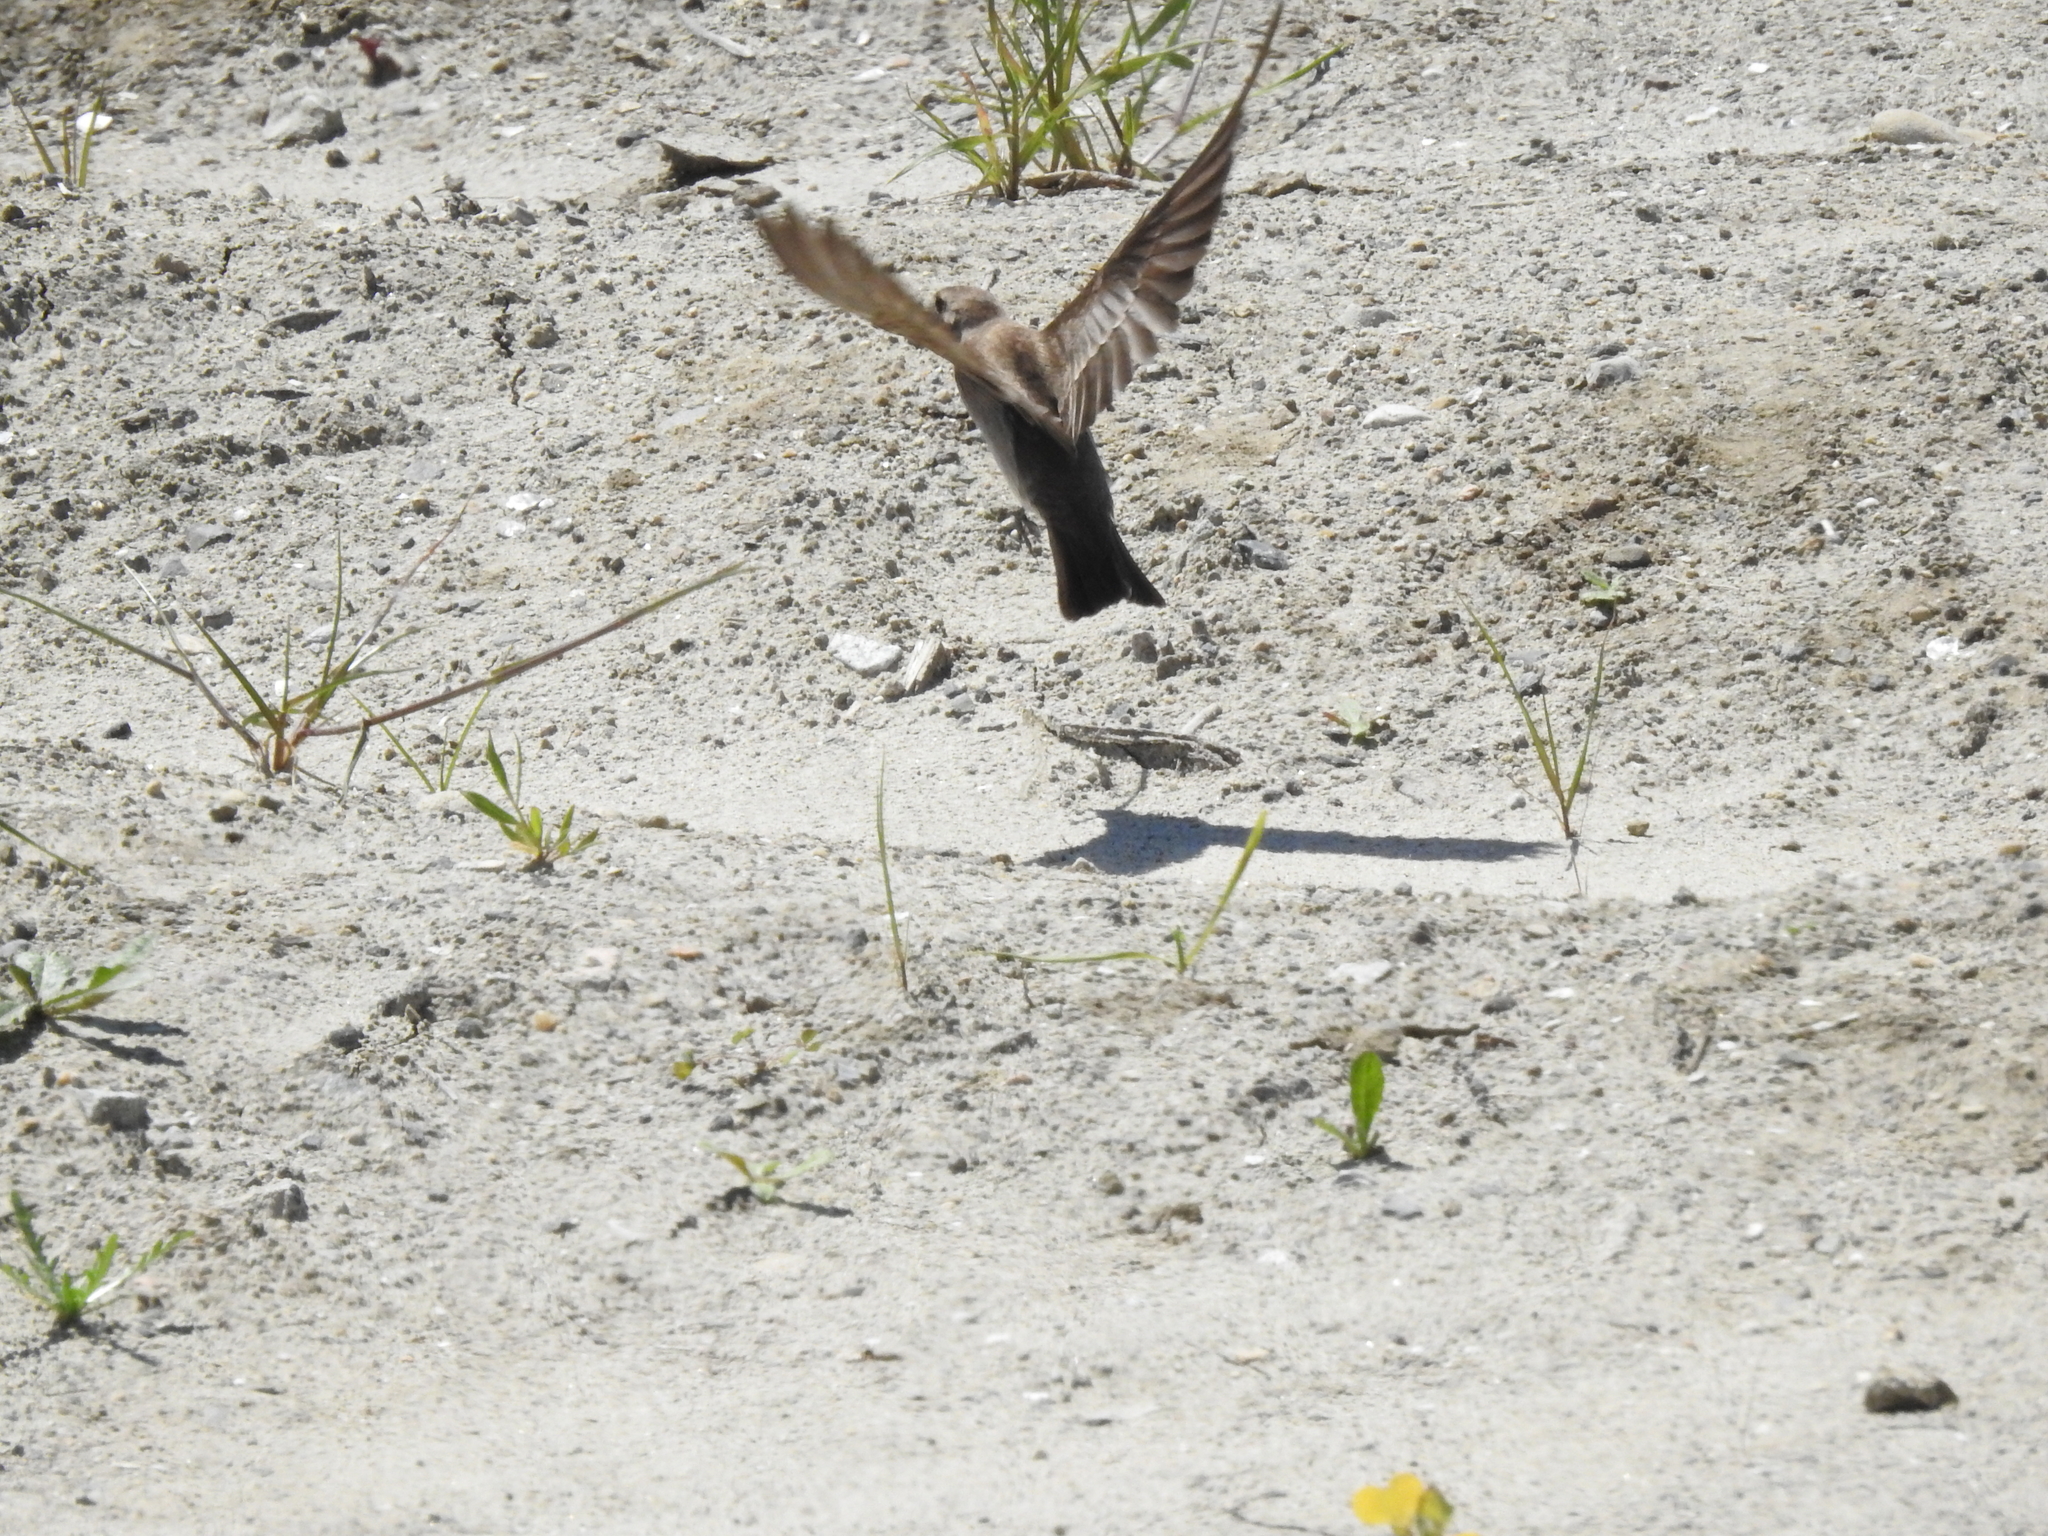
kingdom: Animalia
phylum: Chordata
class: Aves
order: Passeriformes
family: Hirundinidae
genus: Stelgidopteryx
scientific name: Stelgidopteryx serripennis
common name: Northern rough-winged swallow
